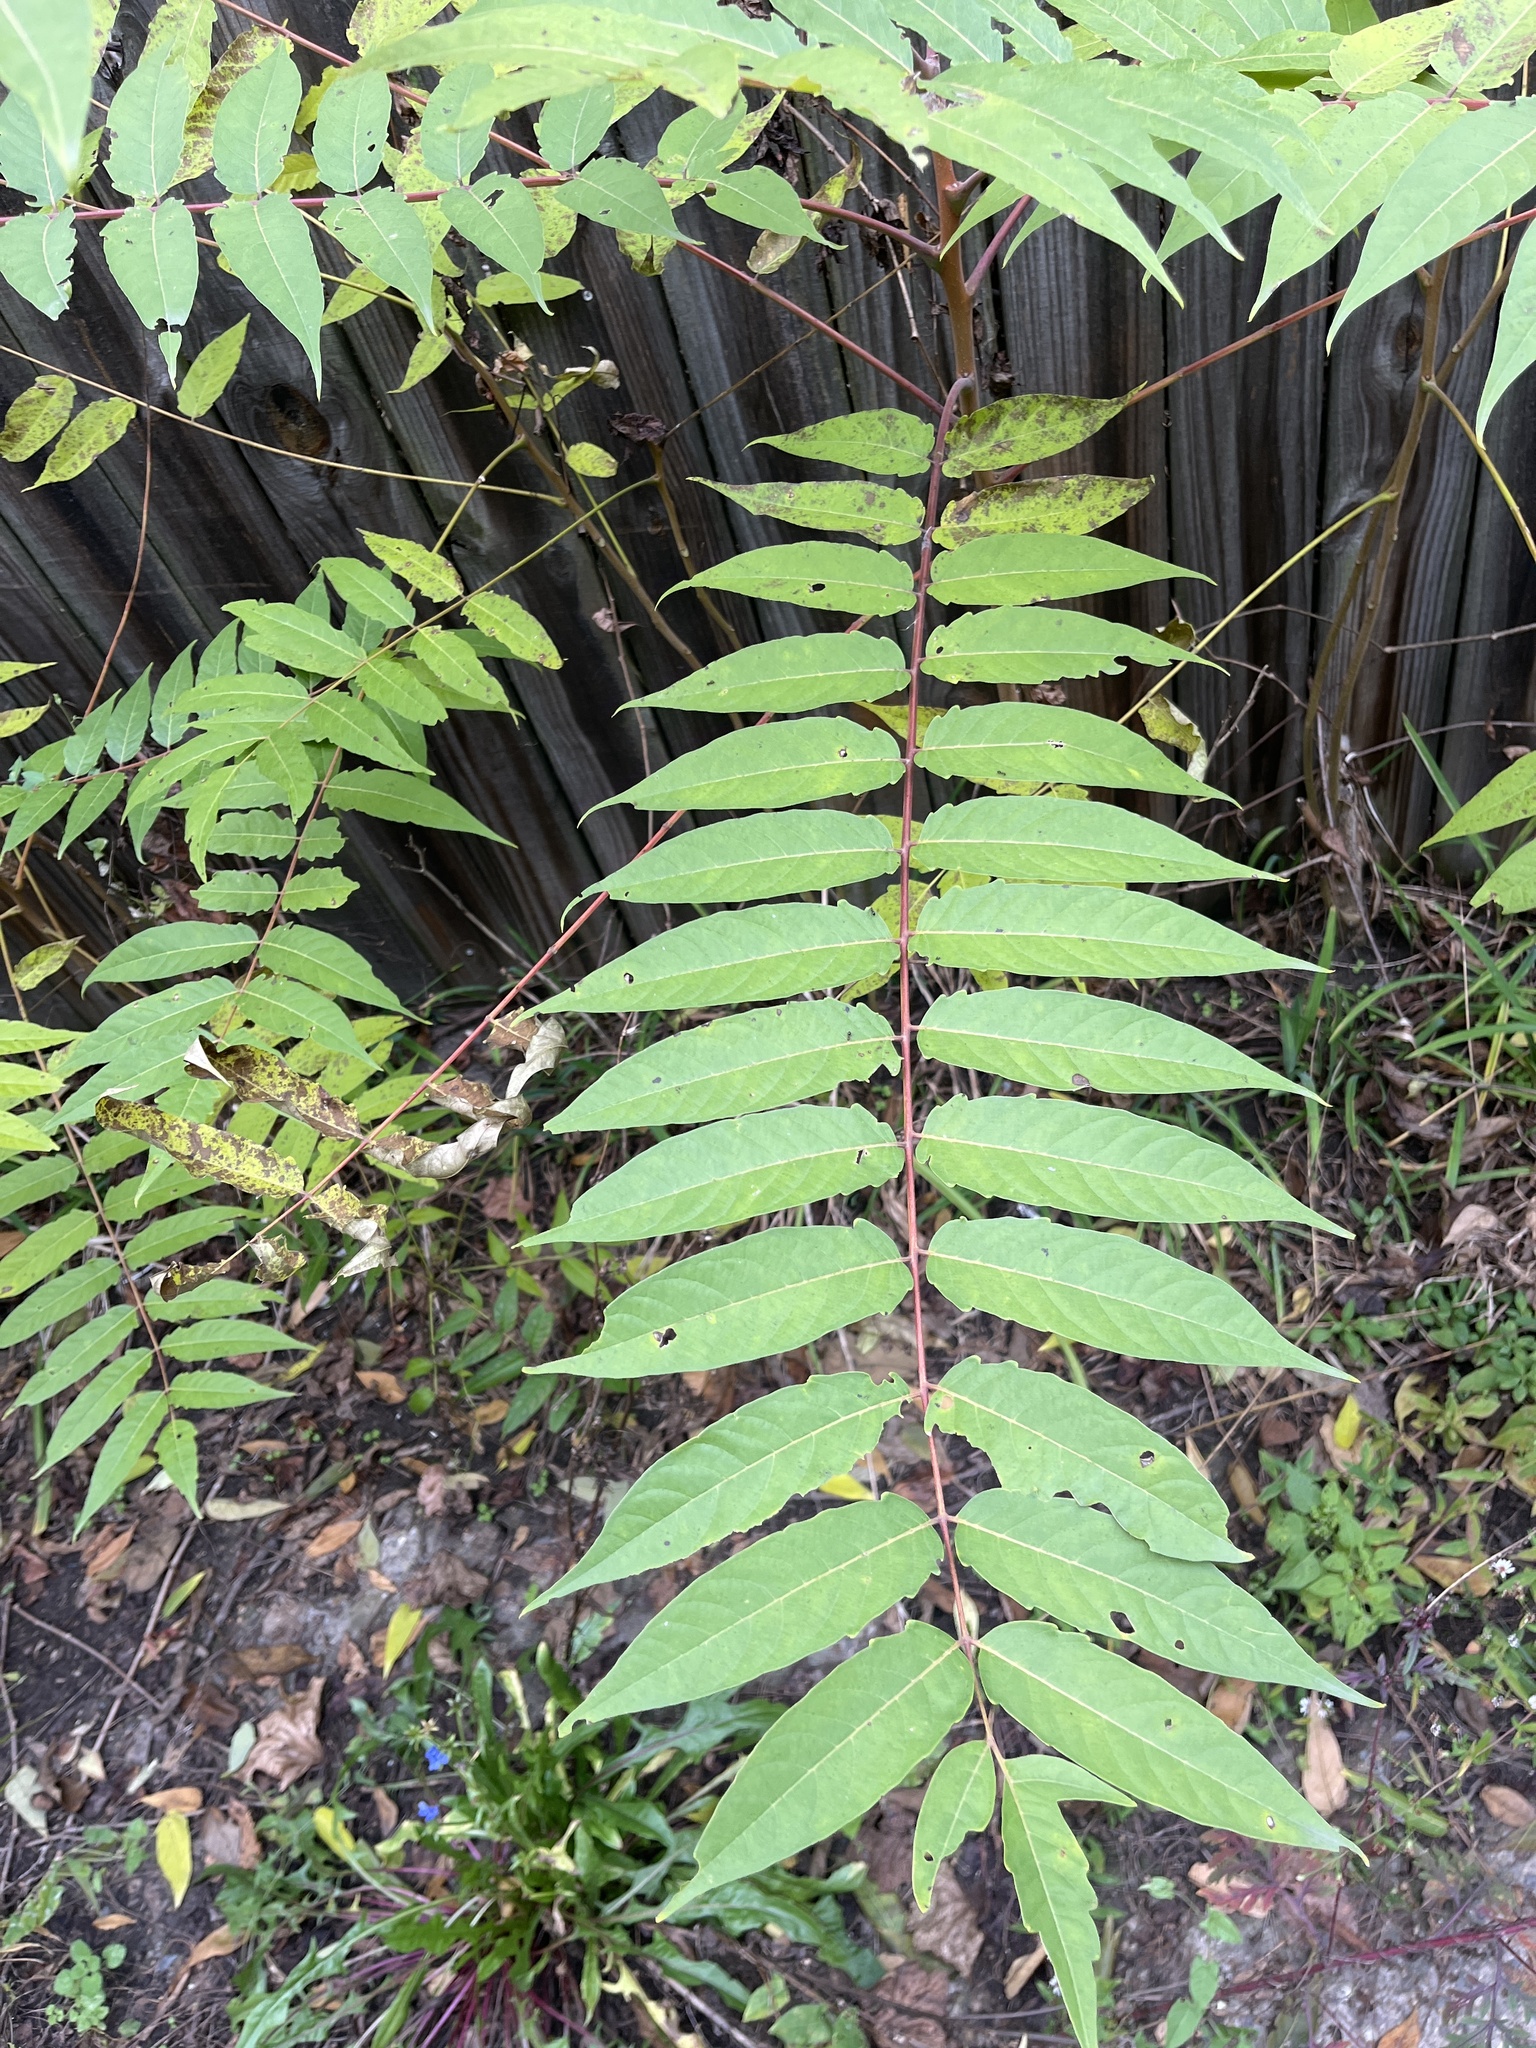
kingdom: Plantae
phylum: Tracheophyta
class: Magnoliopsida
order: Sapindales
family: Anacardiaceae
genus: Rhus
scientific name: Rhus glabra
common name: Scarlet sumac
